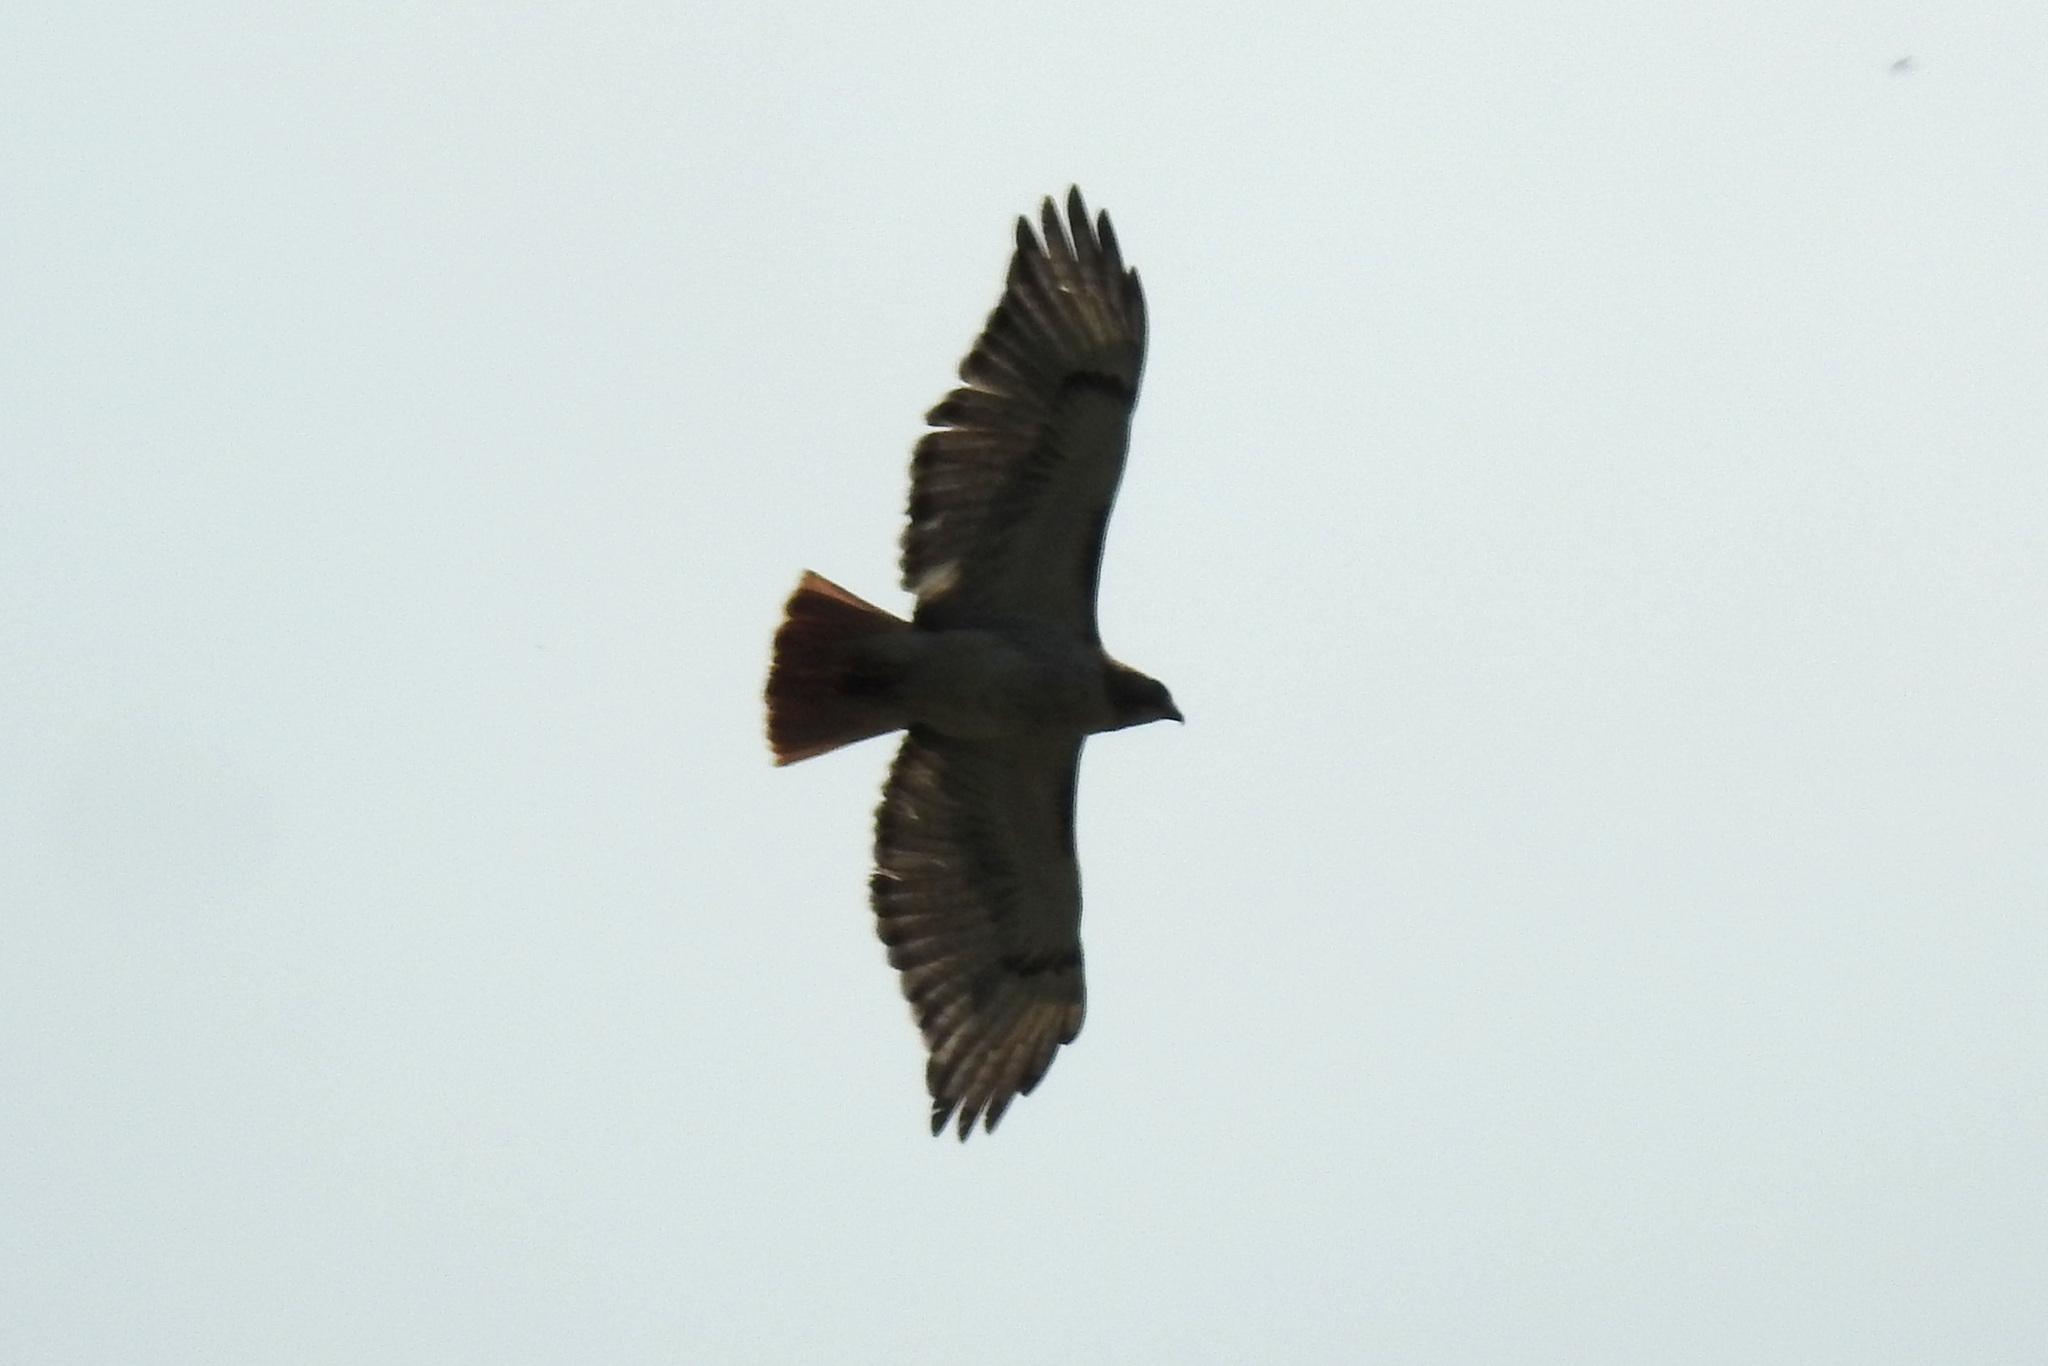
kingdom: Animalia
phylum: Chordata
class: Aves
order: Accipitriformes
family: Accipitridae
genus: Buteo
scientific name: Buteo jamaicensis
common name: Red-tailed hawk
